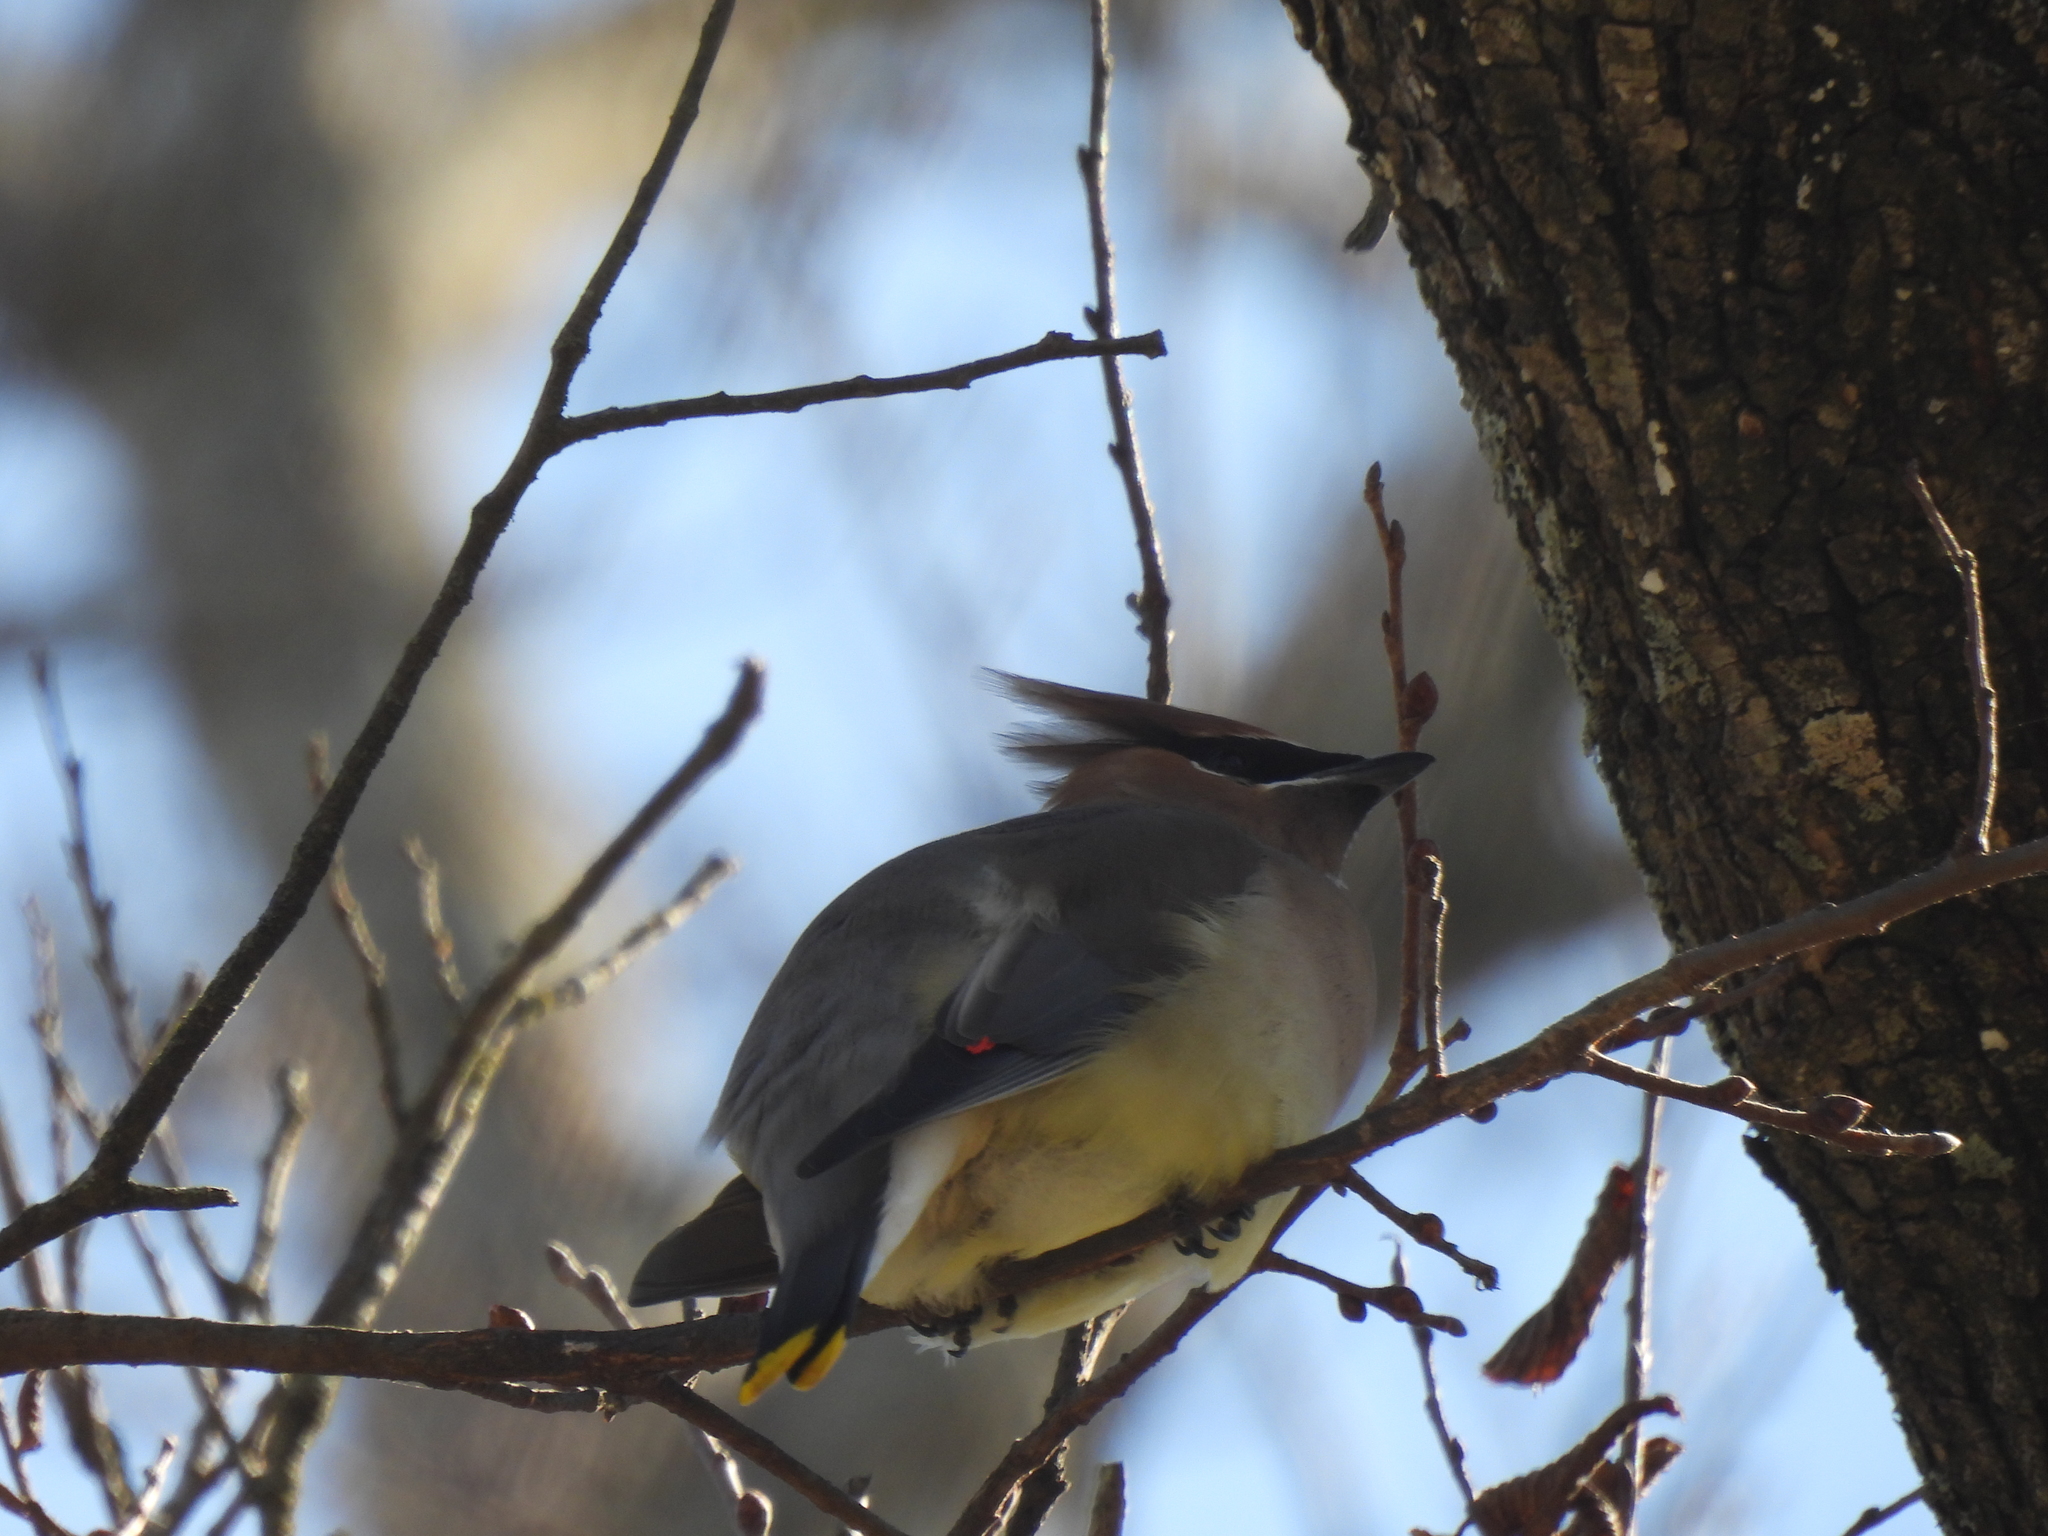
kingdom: Animalia
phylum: Chordata
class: Aves
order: Passeriformes
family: Bombycillidae
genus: Bombycilla
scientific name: Bombycilla cedrorum
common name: Cedar waxwing
